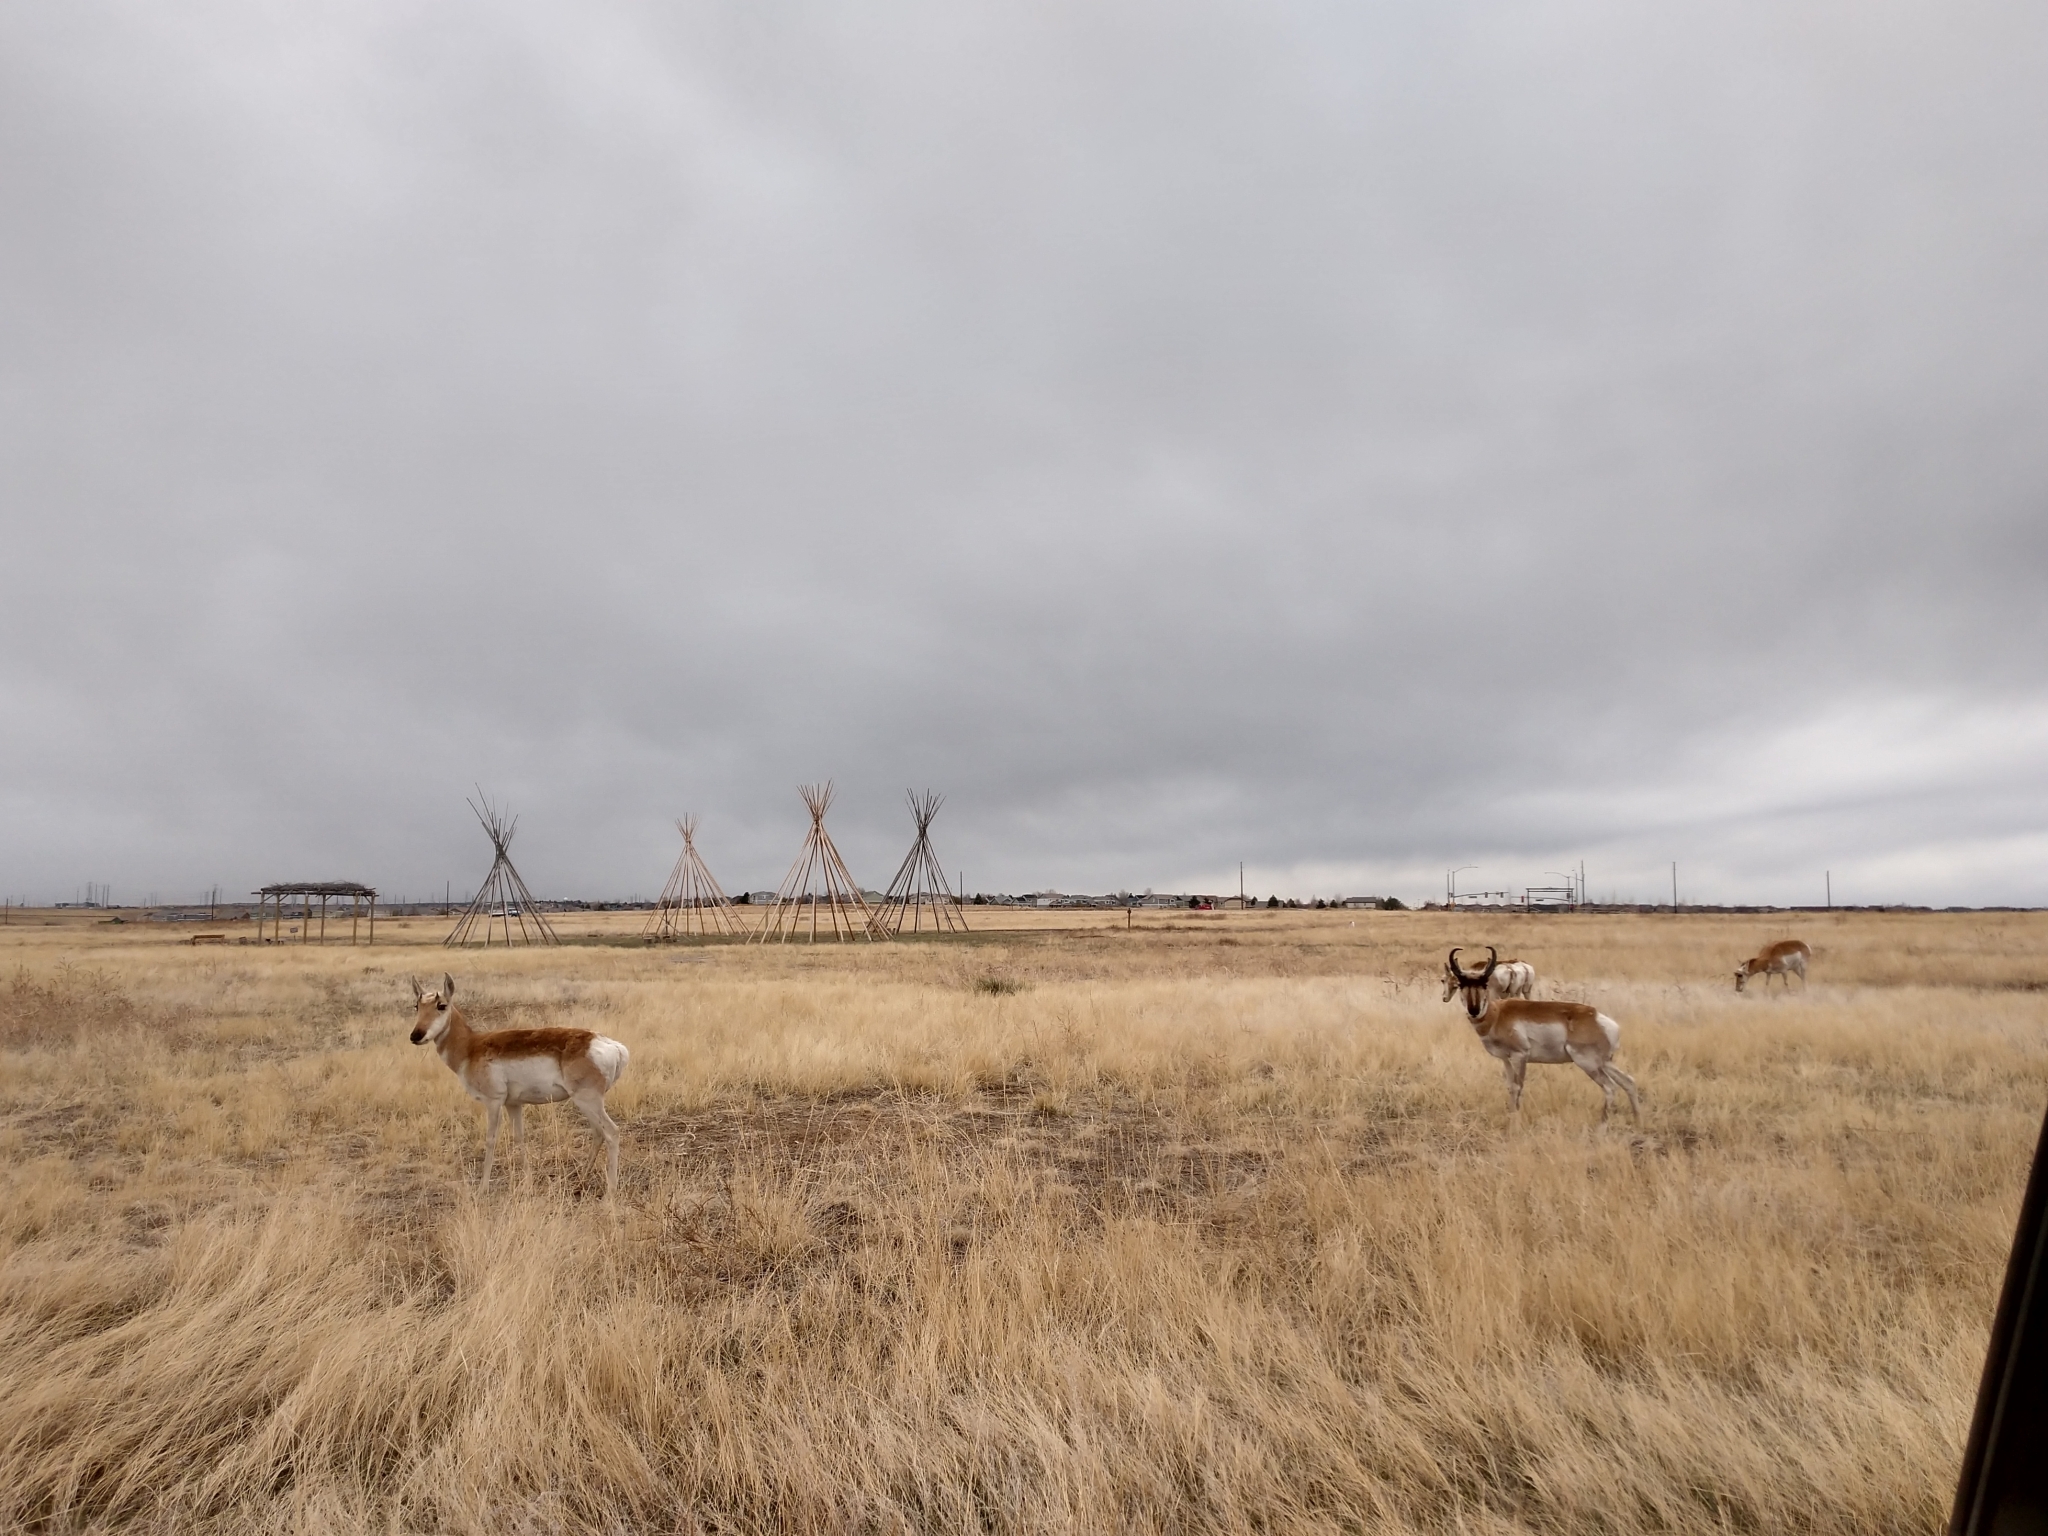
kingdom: Animalia
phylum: Chordata
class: Mammalia
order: Artiodactyla
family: Antilocapridae
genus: Antilocapra
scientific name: Antilocapra americana
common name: Pronghorn
